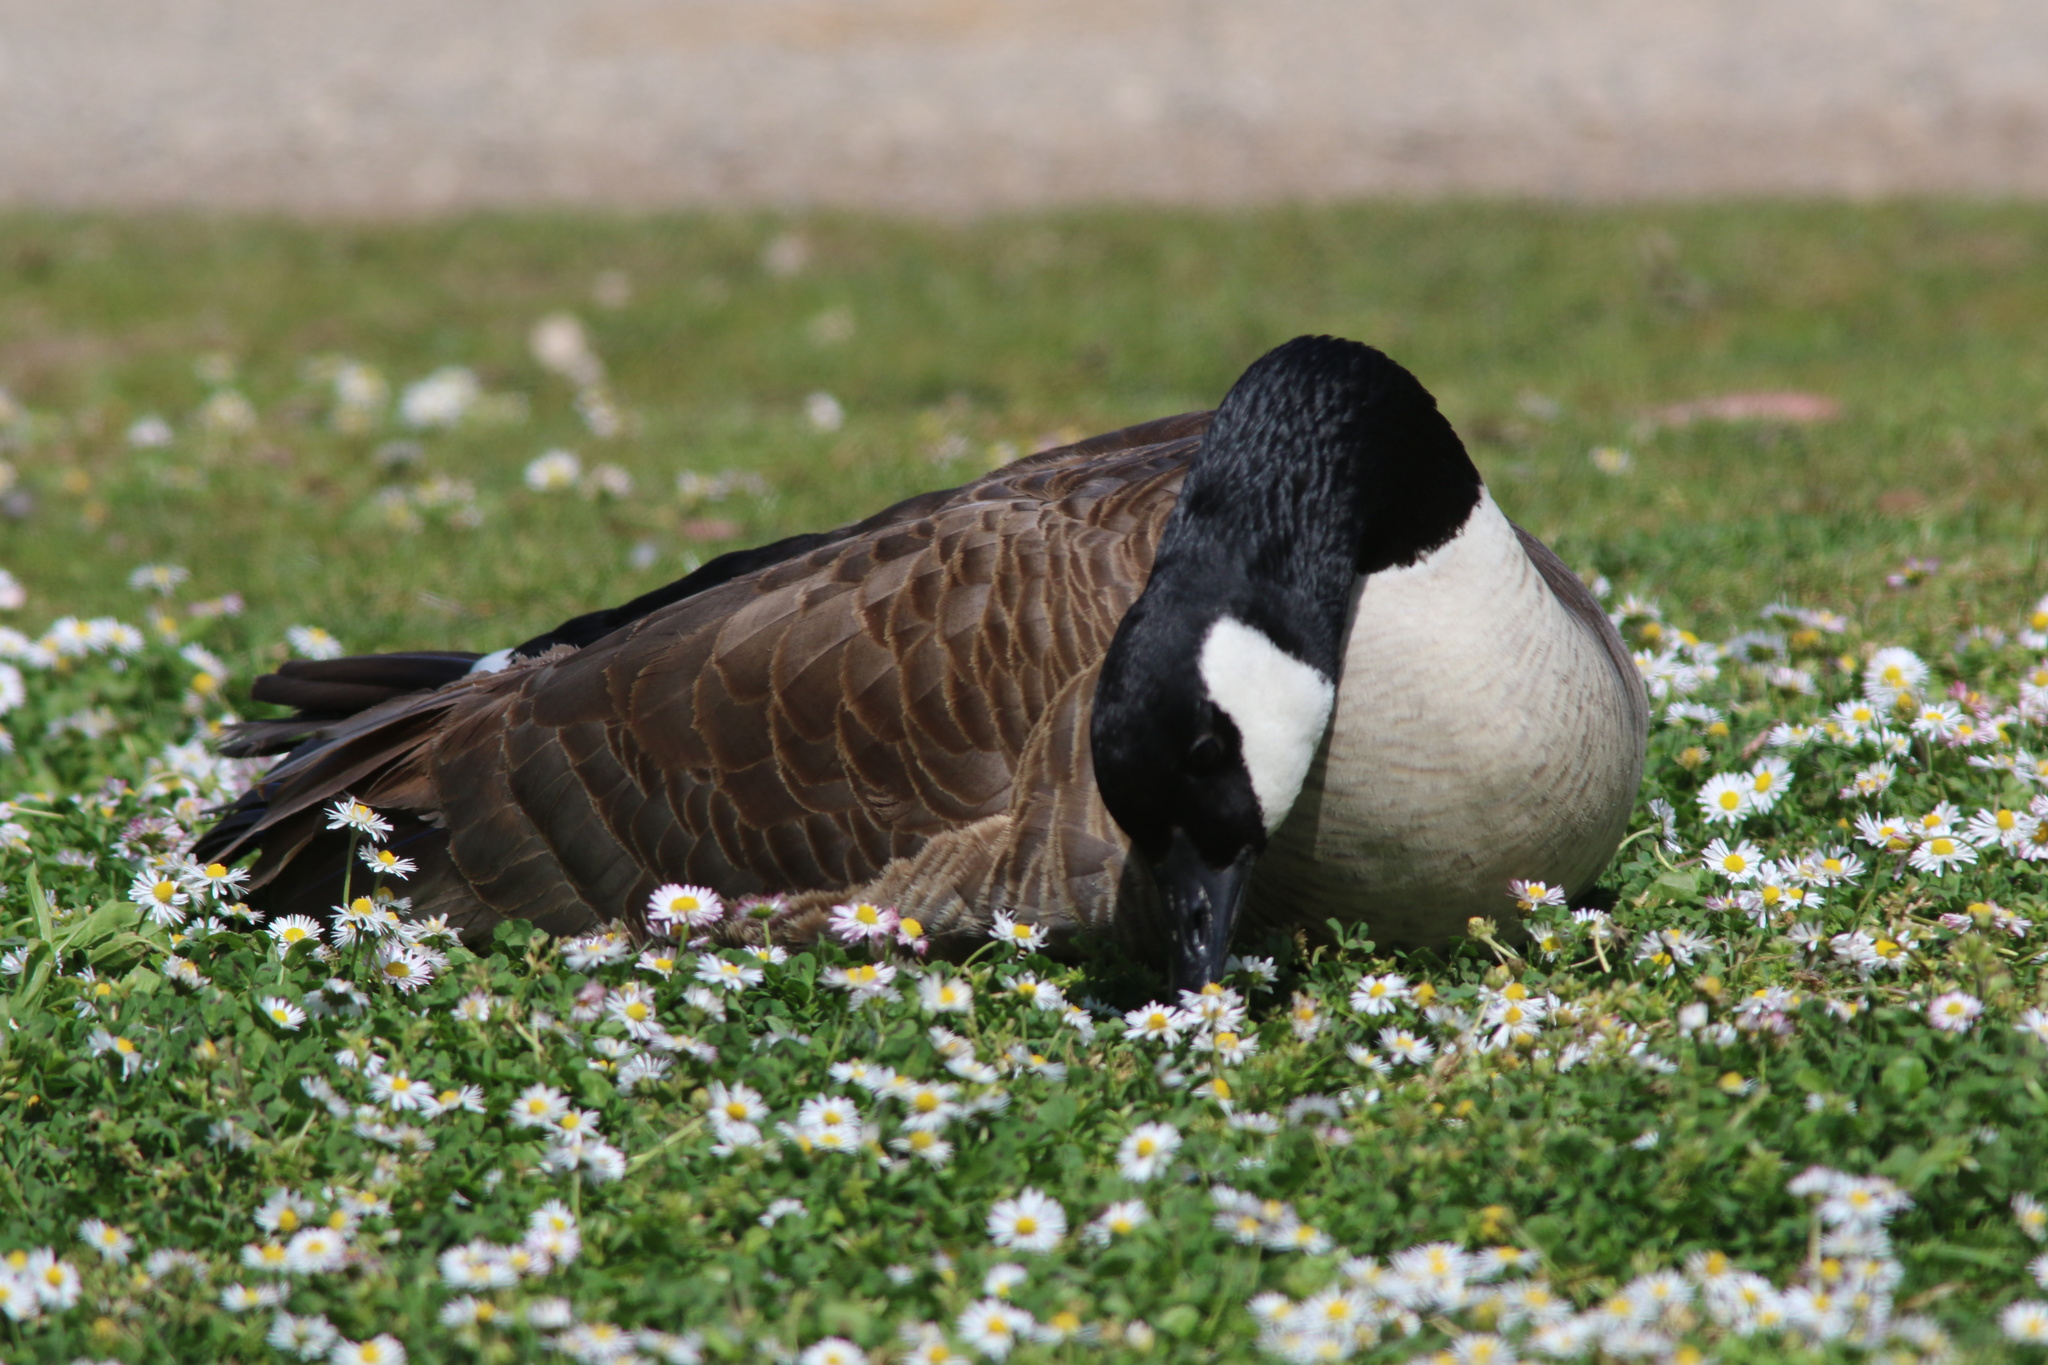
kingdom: Animalia
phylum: Chordata
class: Aves
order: Anseriformes
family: Anatidae
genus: Branta
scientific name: Branta canadensis
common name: Canada goose
